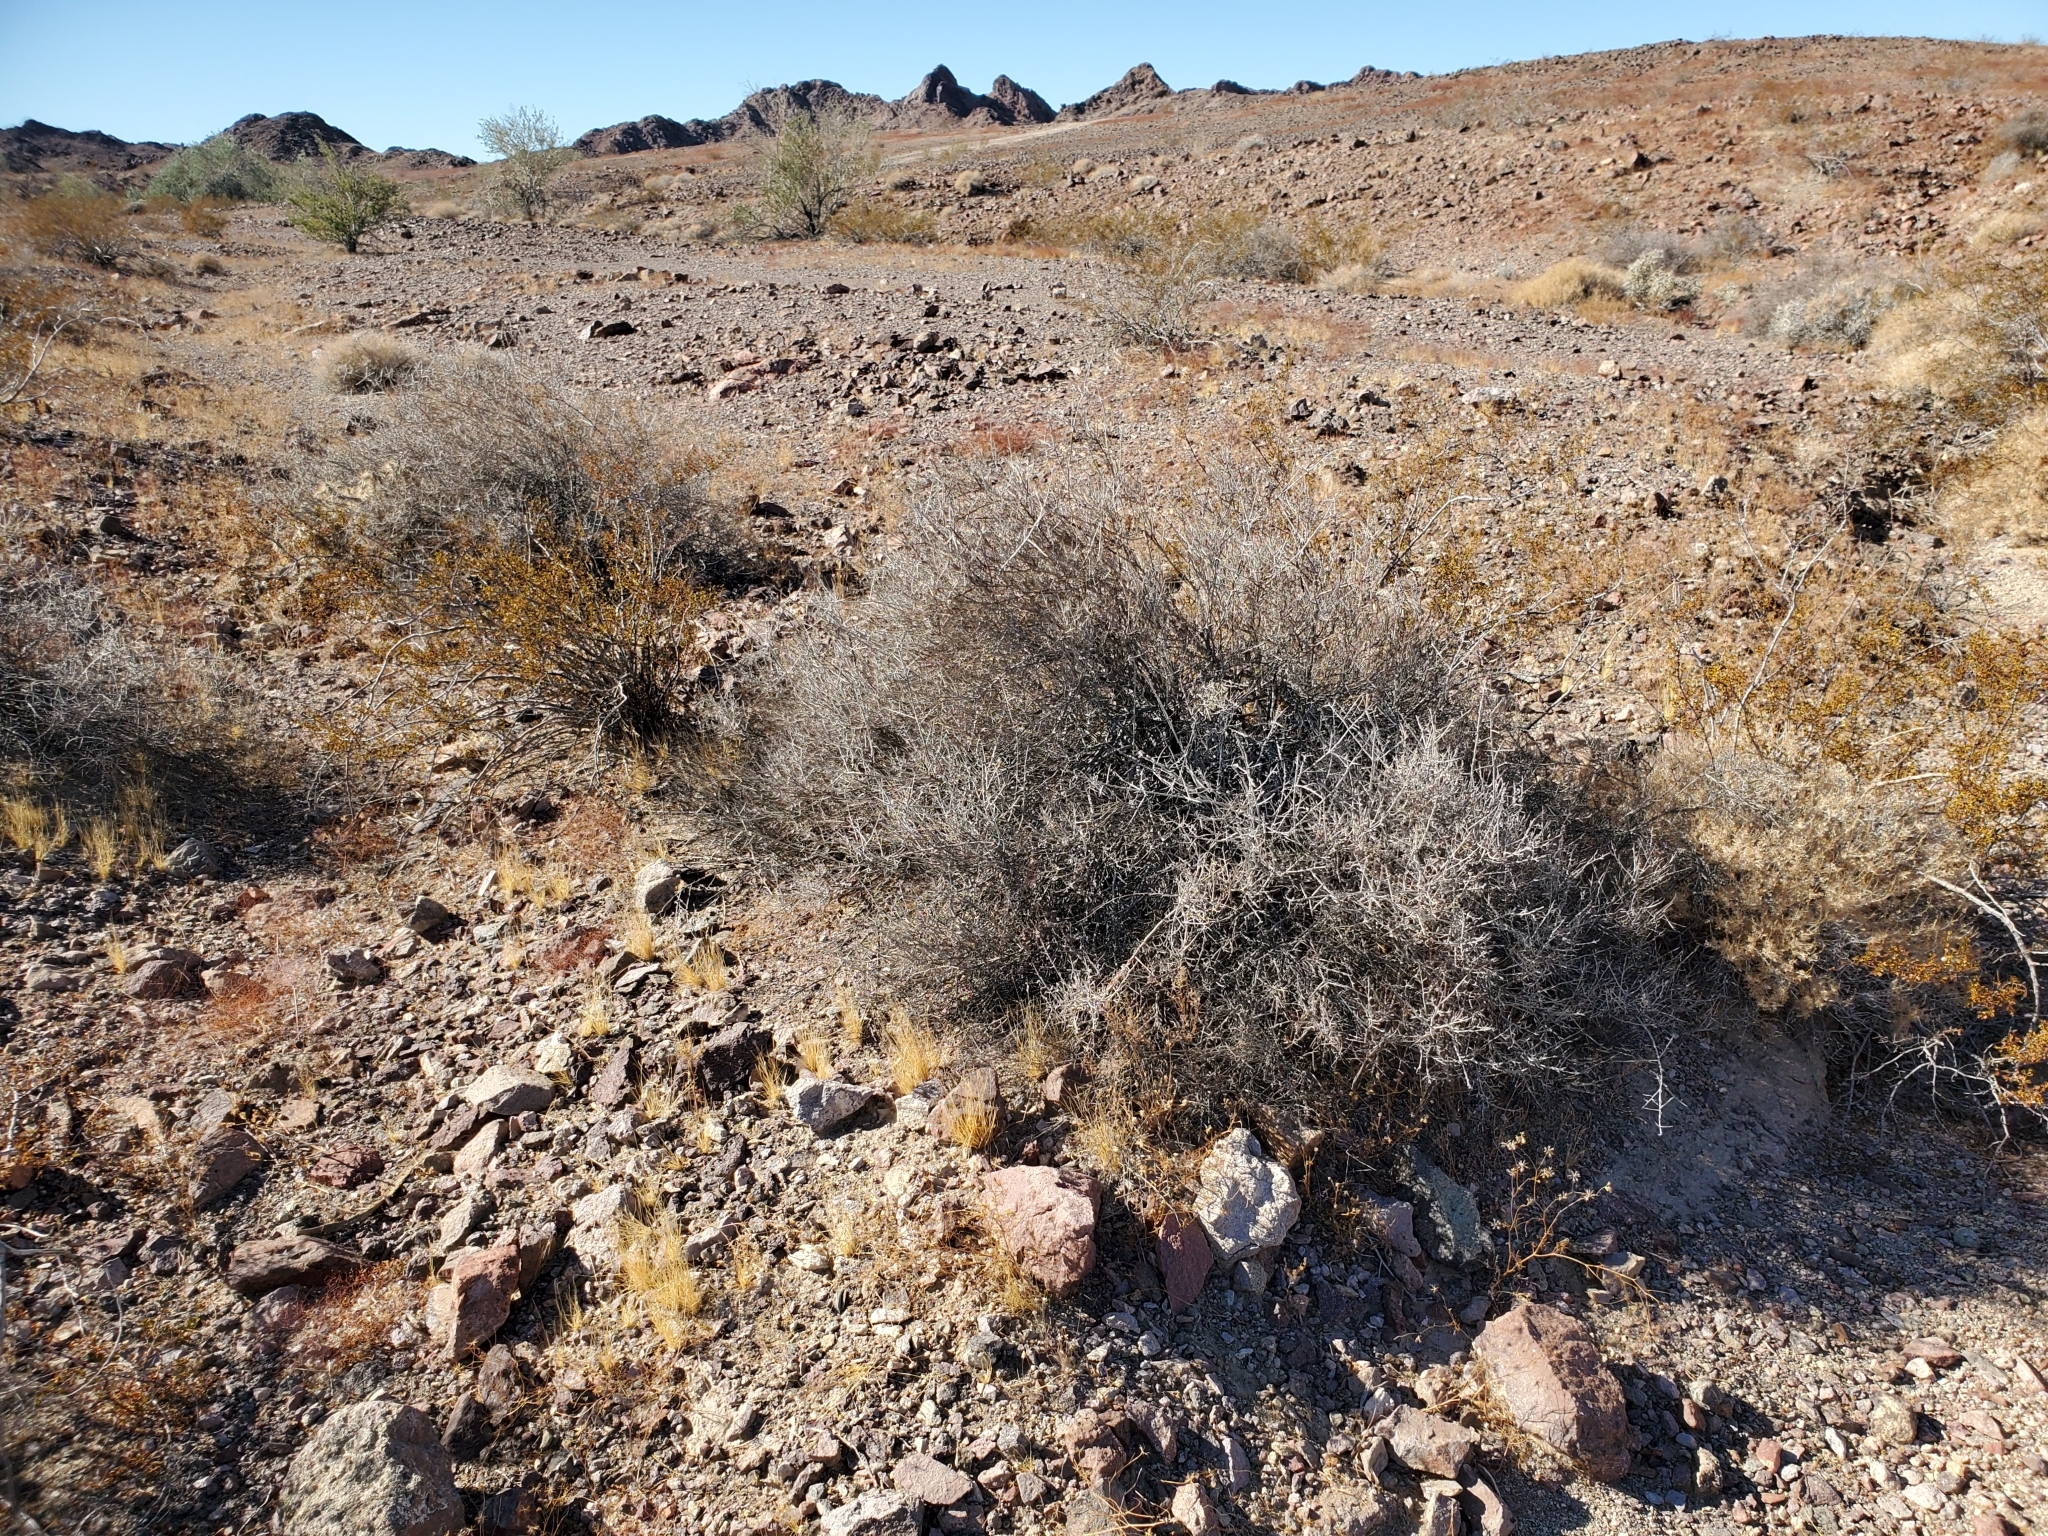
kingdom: Plantae
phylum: Tracheophyta
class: Magnoliopsida
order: Zygophyllales
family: Krameriaceae
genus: Krameria
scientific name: Krameria bicolor
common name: White ratany
